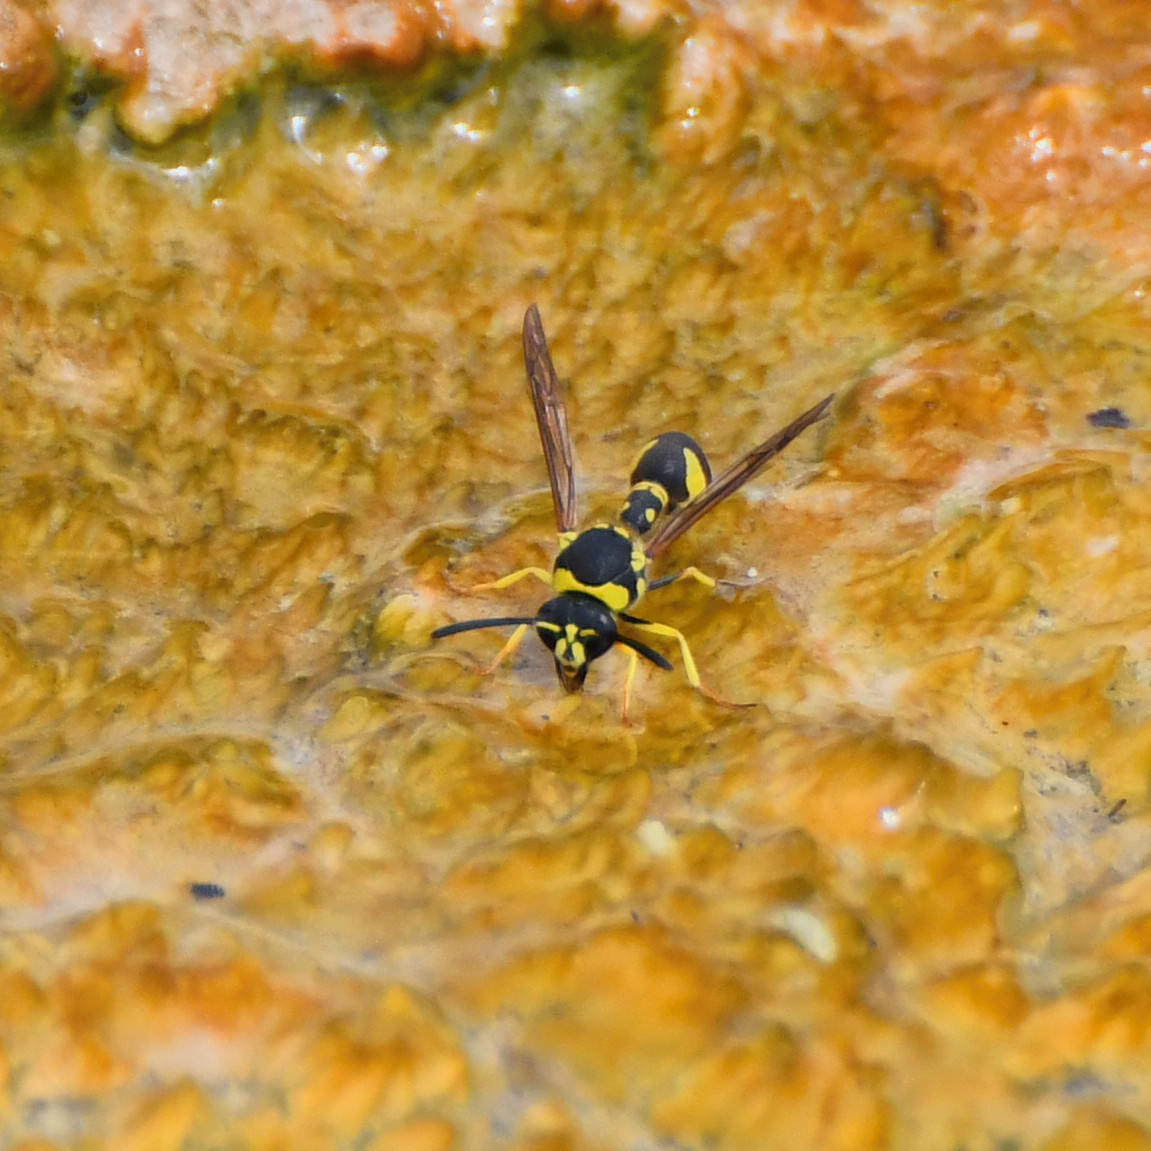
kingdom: Animalia
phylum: Arthropoda
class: Insecta
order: Hymenoptera
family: Vespidae
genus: Eumenes
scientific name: Eumenes
